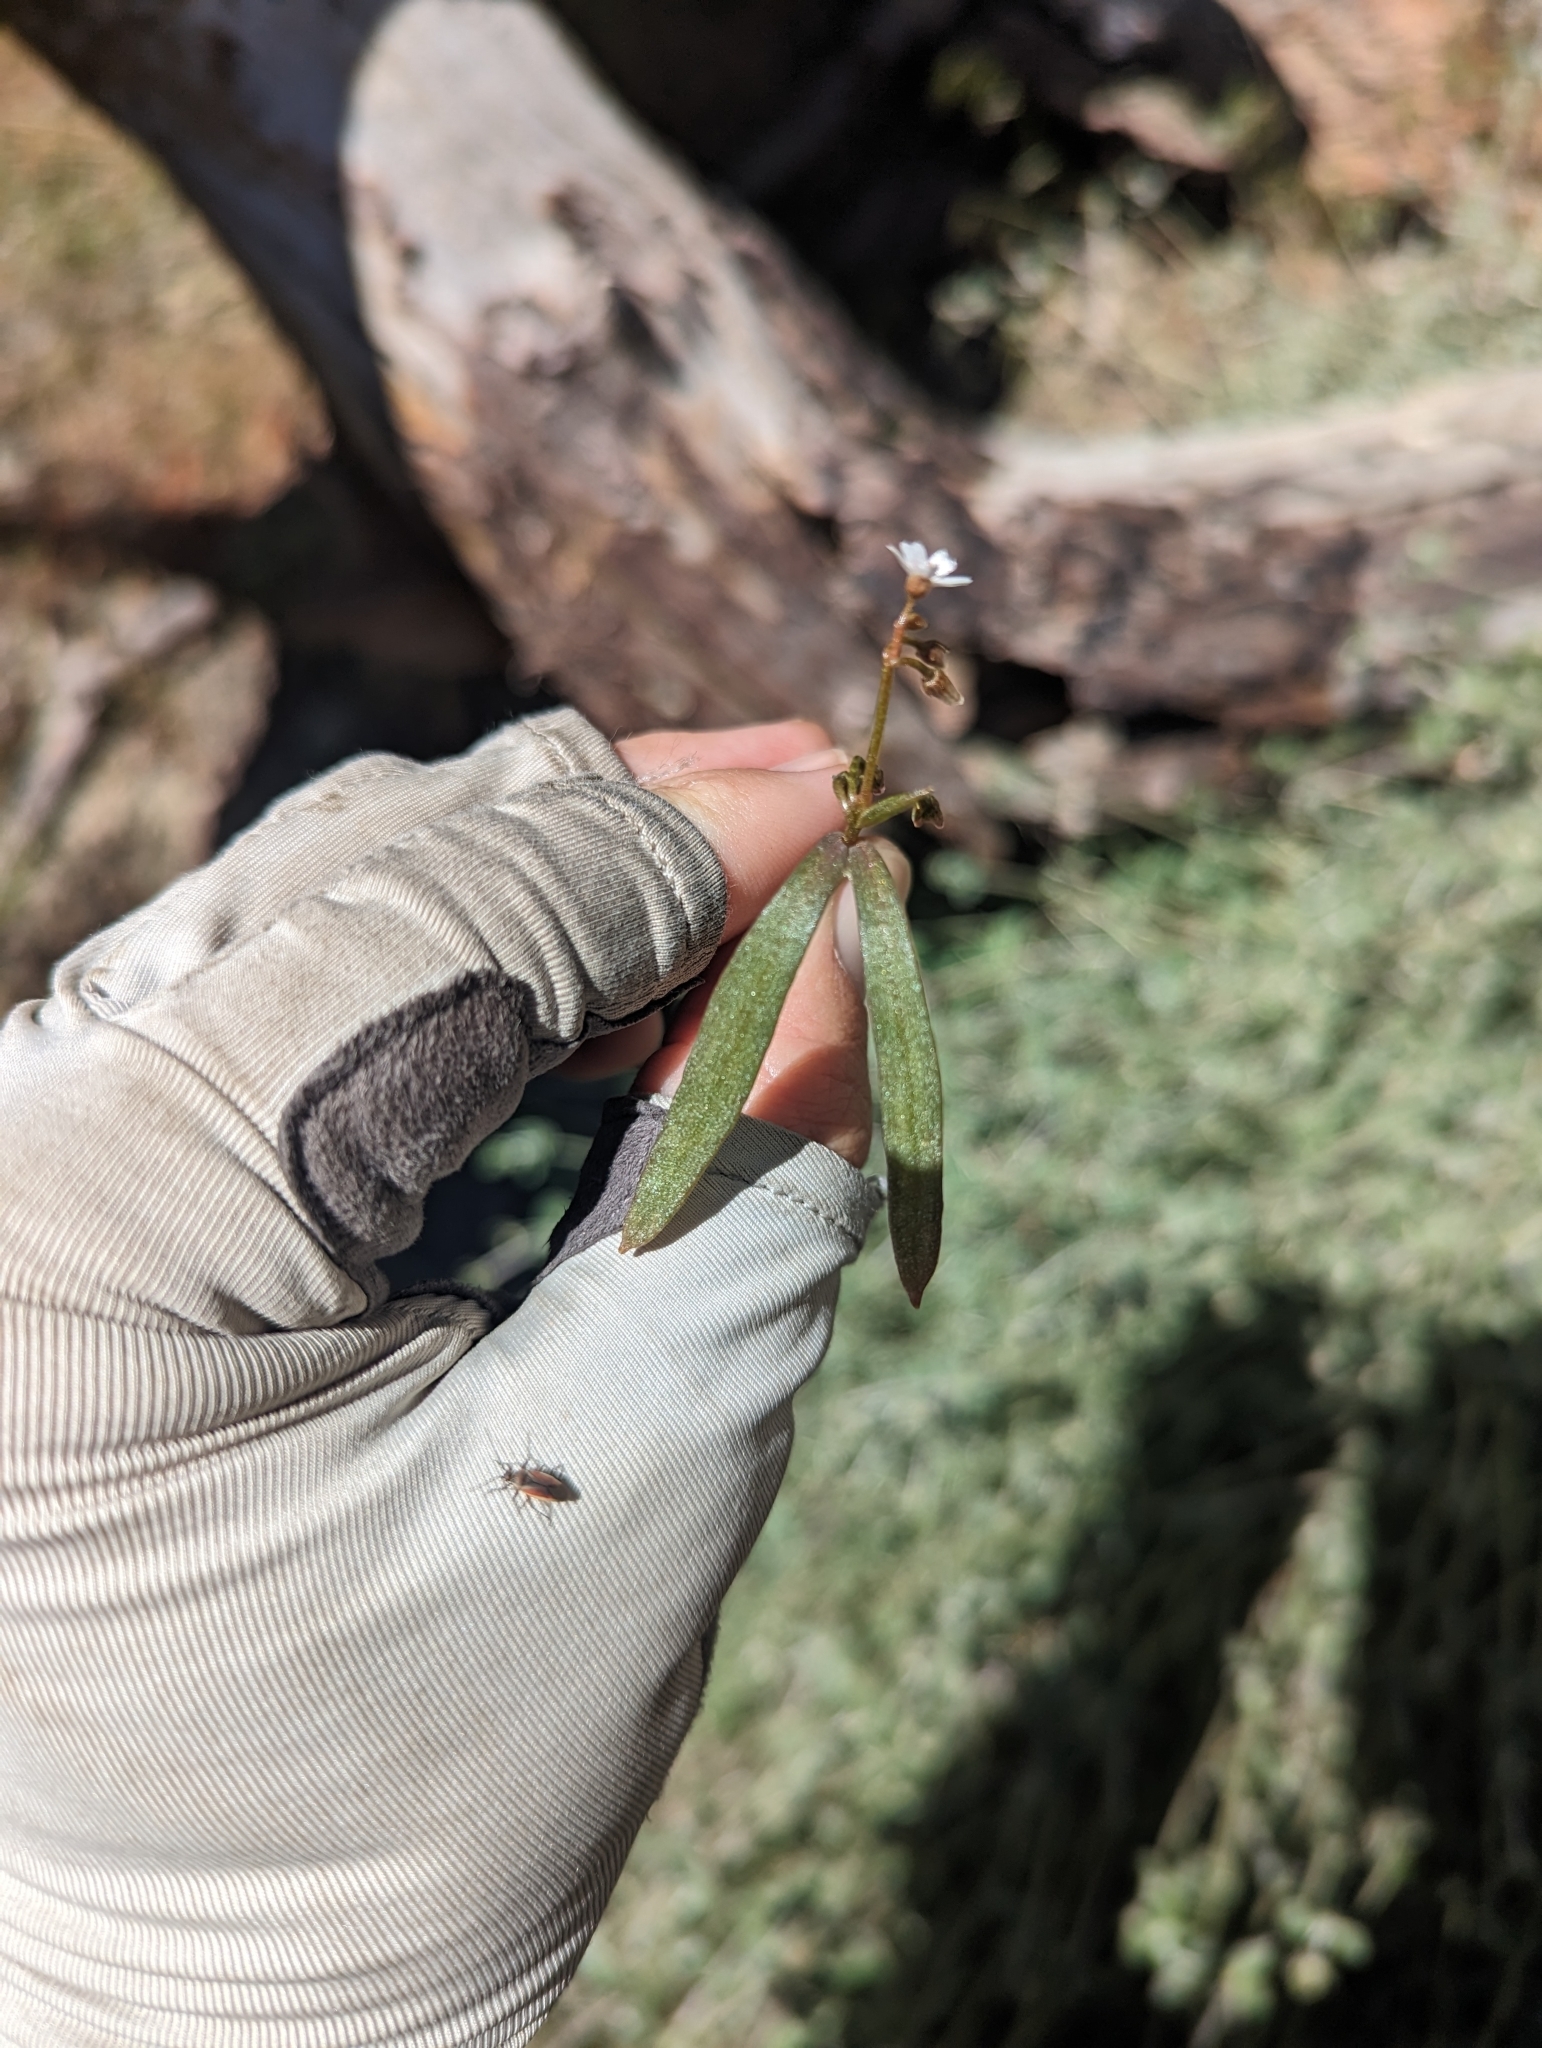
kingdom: Plantae
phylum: Tracheophyta
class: Magnoliopsida
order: Caryophyllales
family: Montiaceae
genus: Claytonia
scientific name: Claytonia parviflora
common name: Indian-lettuce
